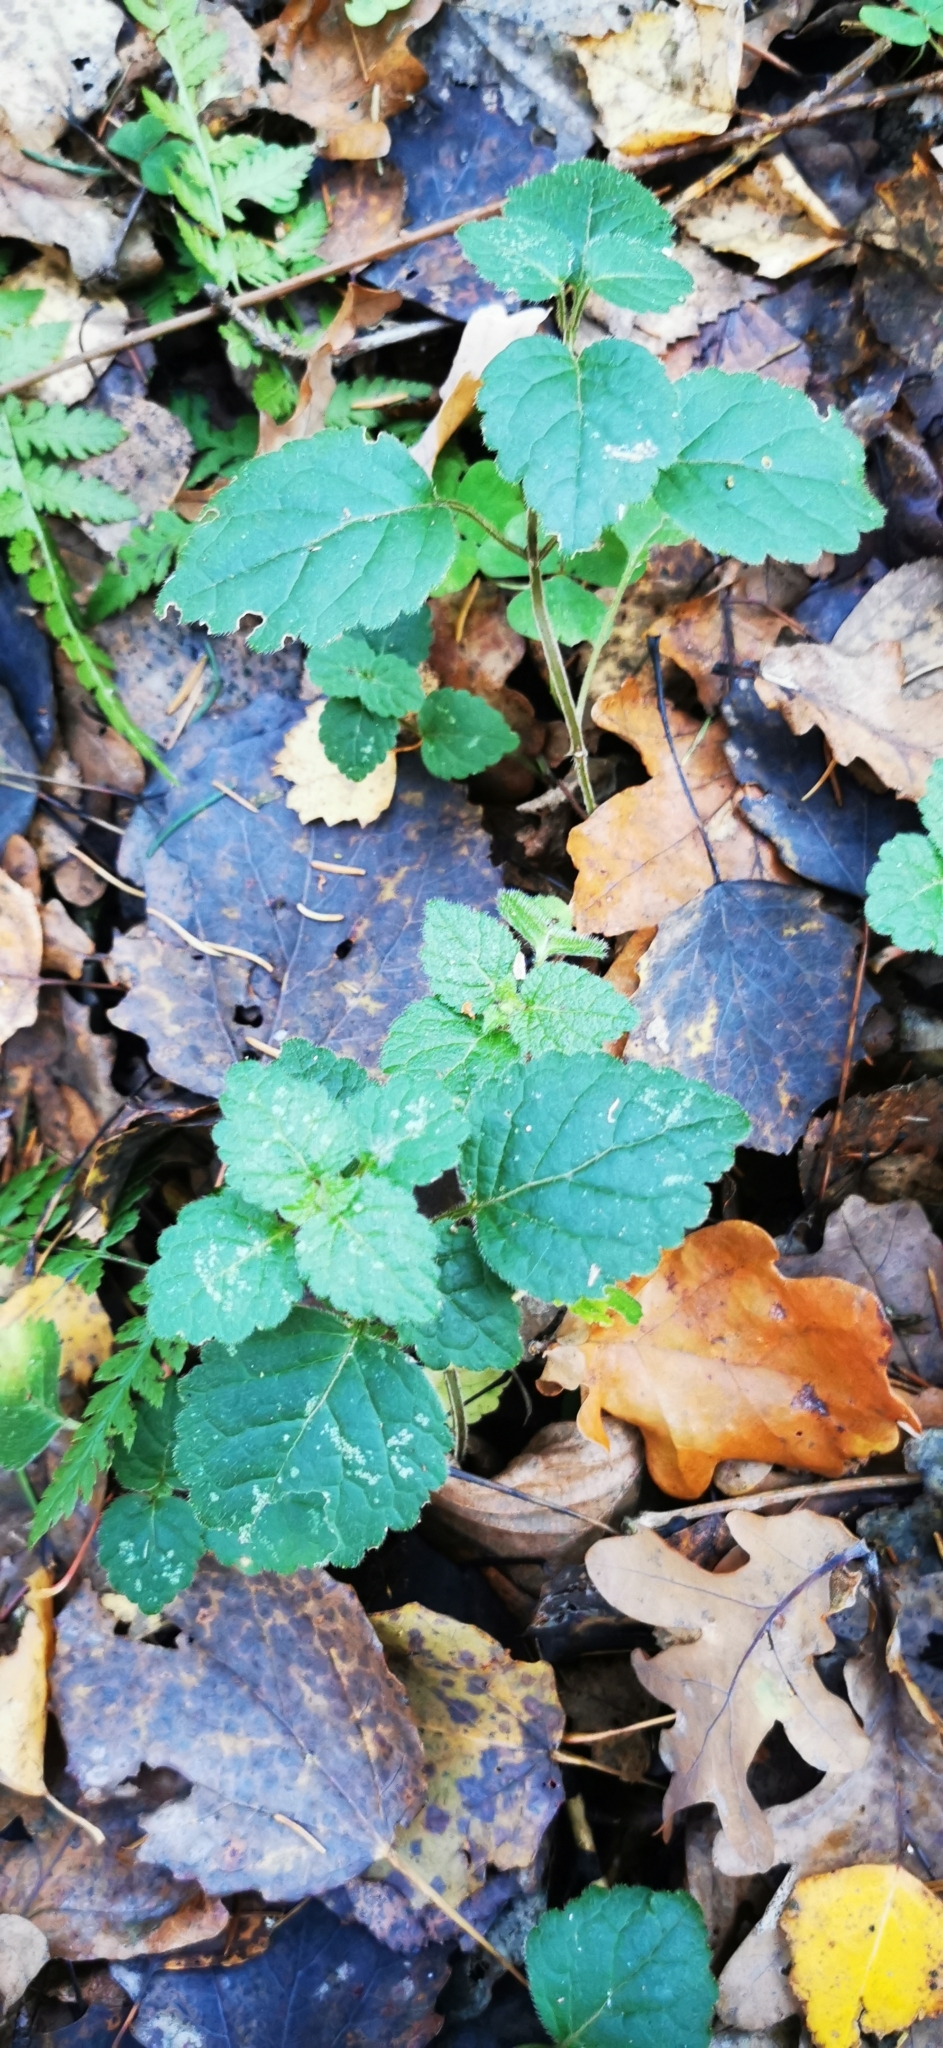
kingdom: Plantae
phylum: Tracheophyta
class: Magnoliopsida
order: Lamiales
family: Lamiaceae
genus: Lamium
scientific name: Lamium galeobdolon
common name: Yellow archangel
